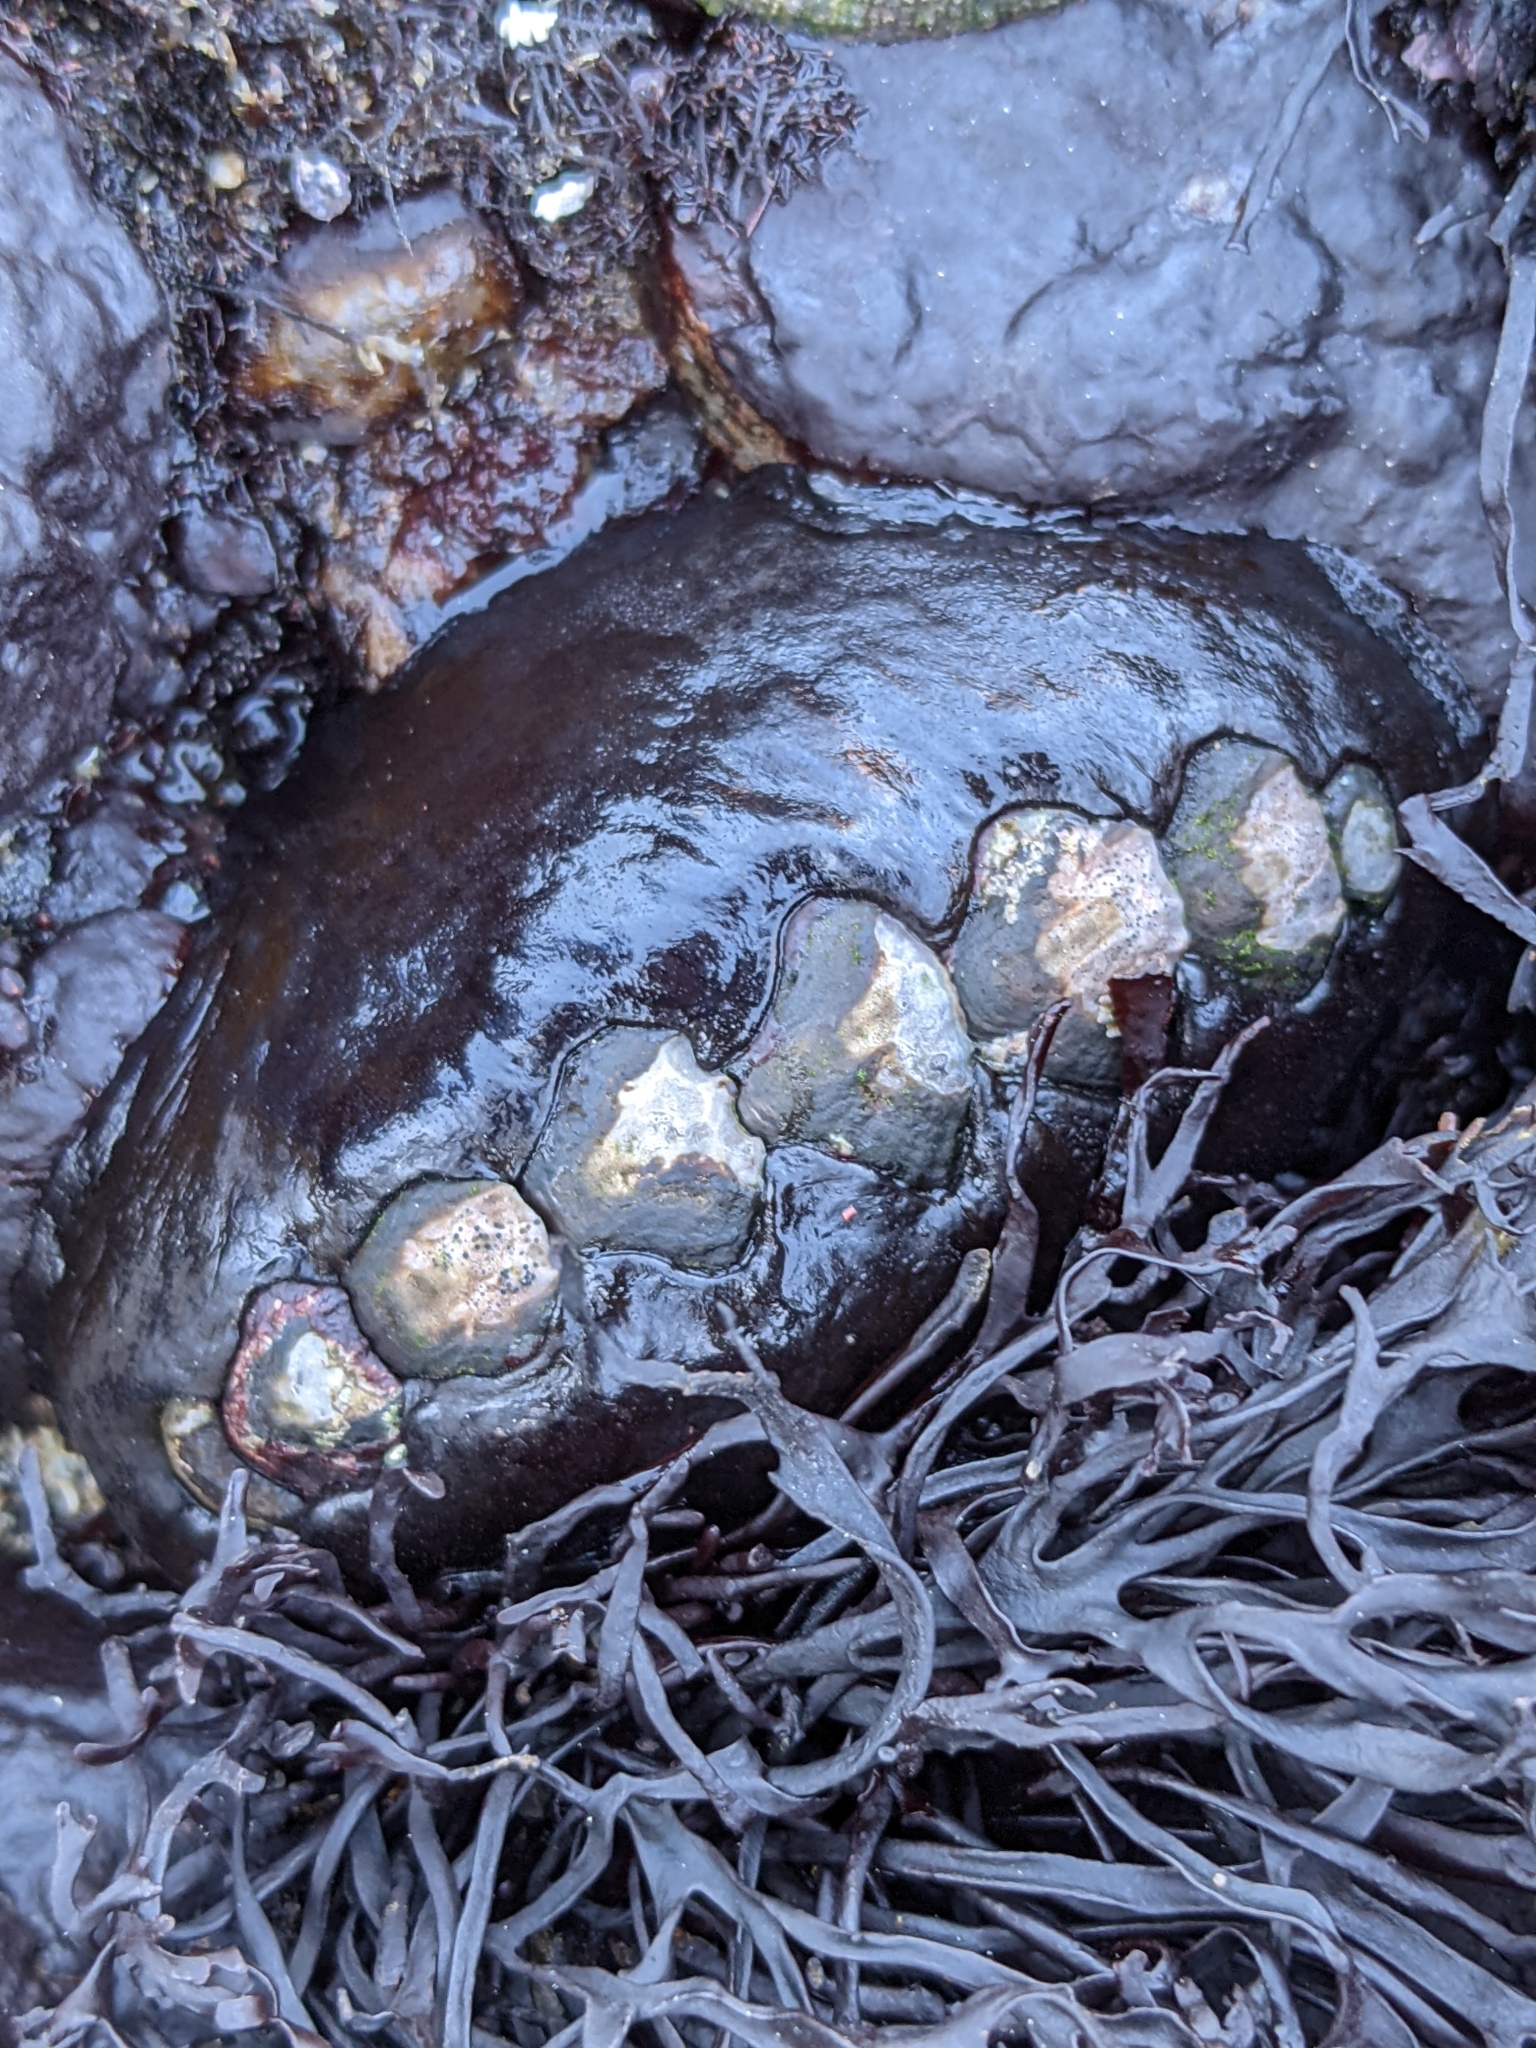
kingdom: Animalia
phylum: Mollusca
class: Polyplacophora
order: Chitonida
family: Mopaliidae
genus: Katharina
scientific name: Katharina tunicata
